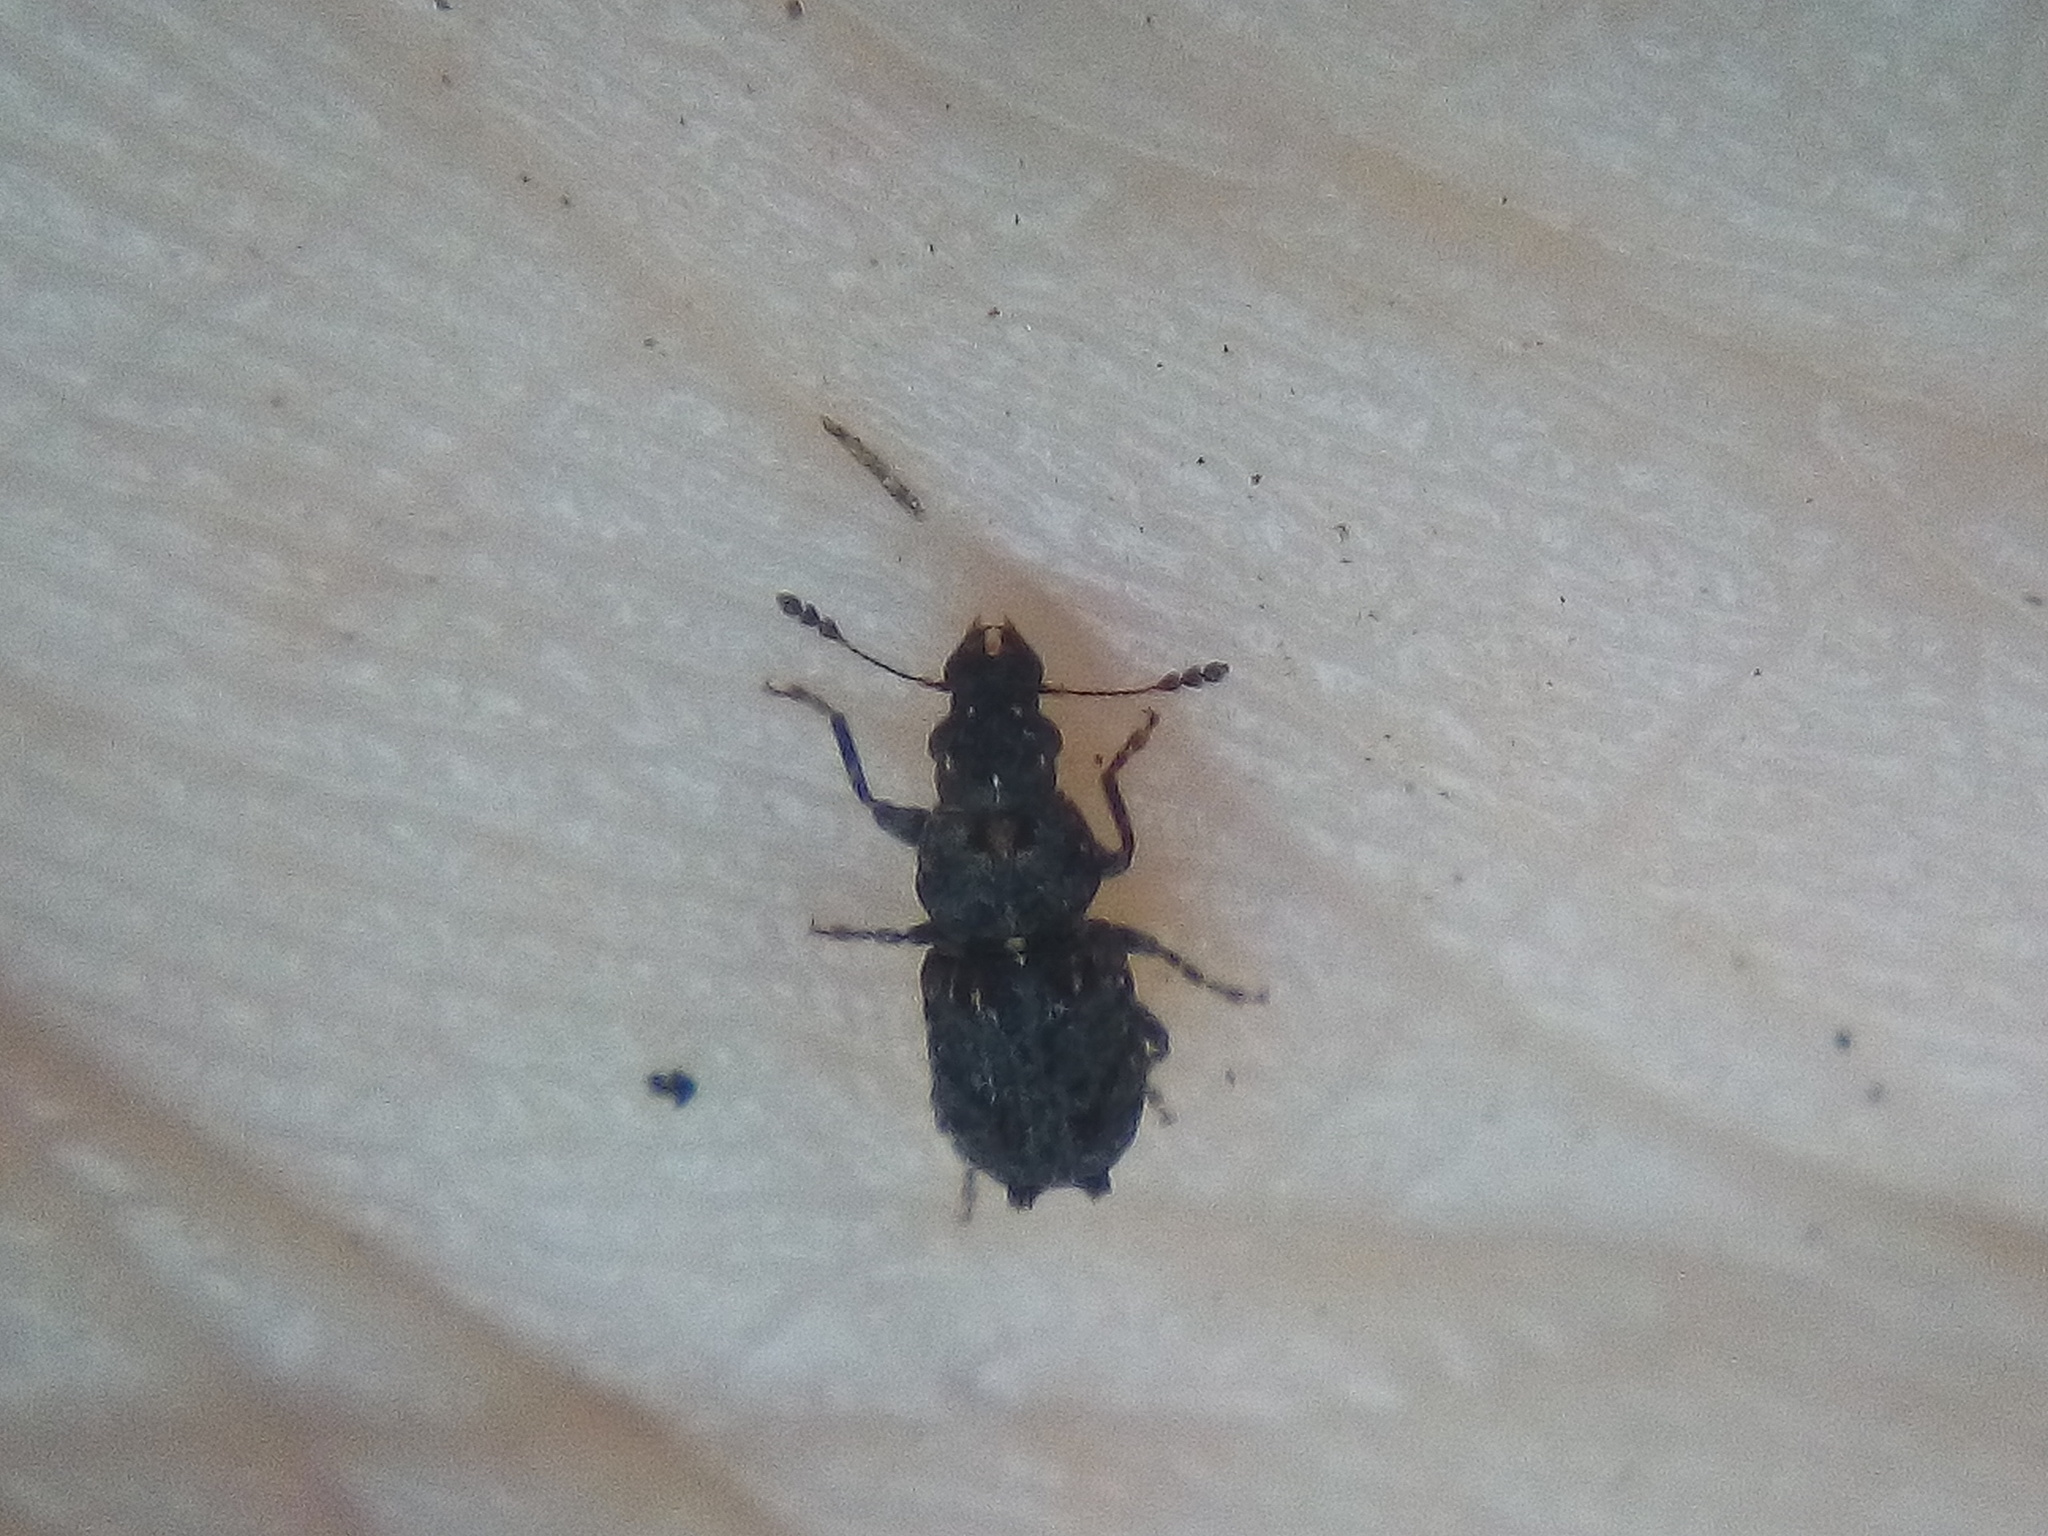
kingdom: Animalia
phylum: Arthropoda
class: Insecta
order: Coleoptera
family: Anthribidae
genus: Pleosporius
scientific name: Pleosporius bullatus
